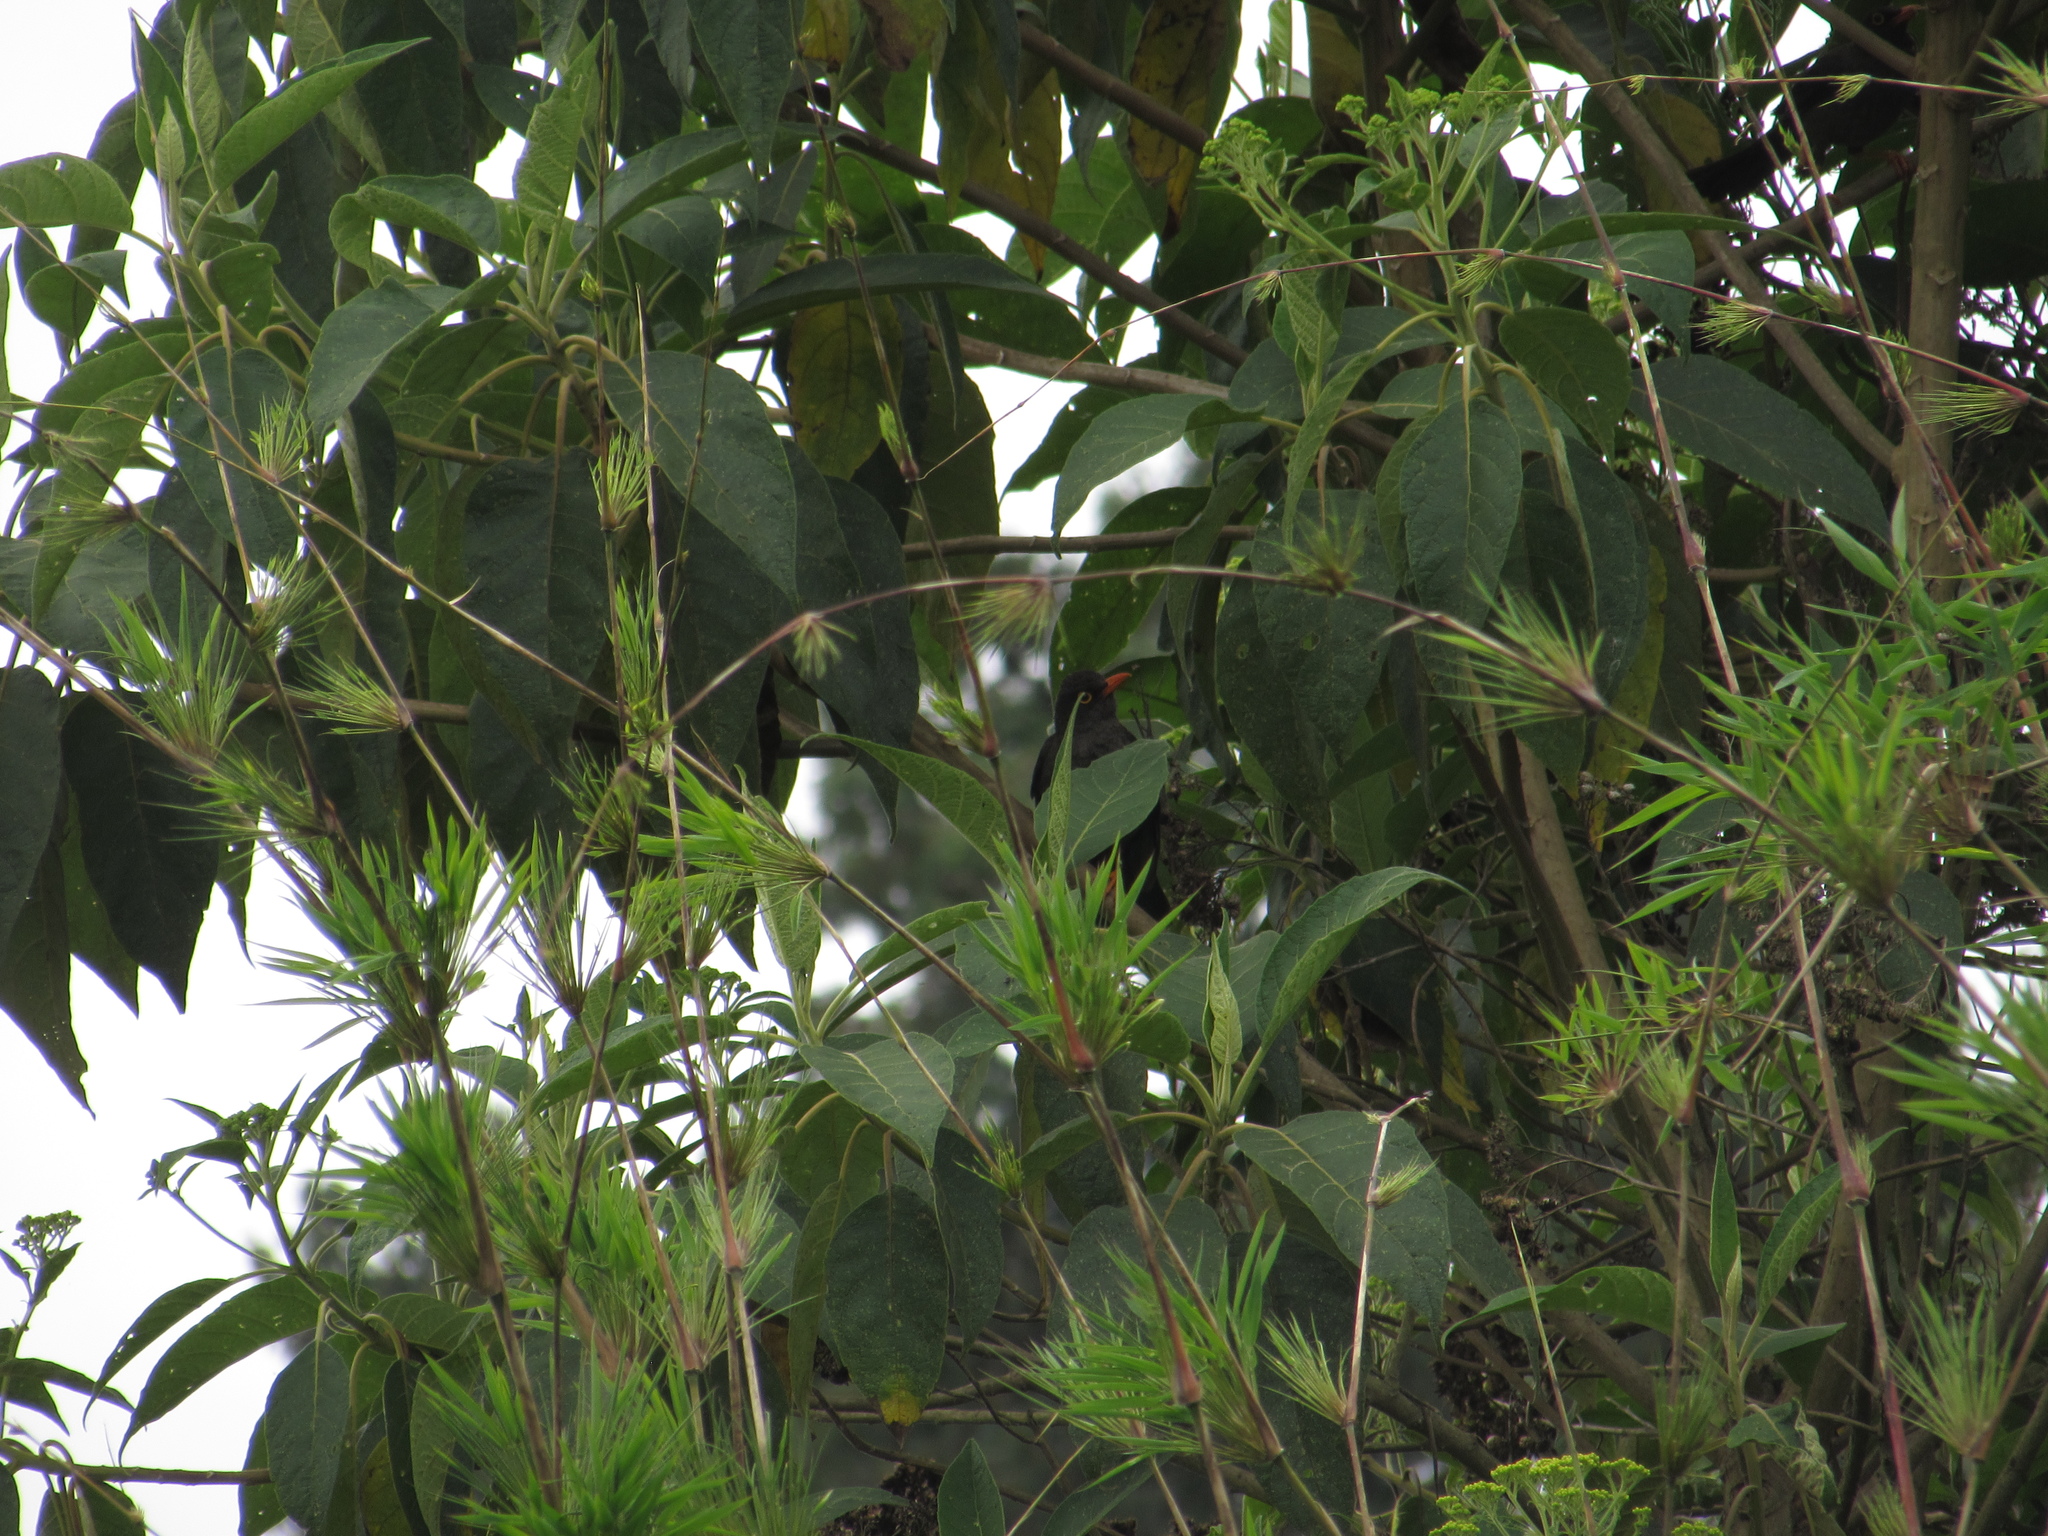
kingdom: Animalia
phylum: Chordata
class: Aves
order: Passeriformes
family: Turdidae
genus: Turdus
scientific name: Turdus fuscater
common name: Great thrush
